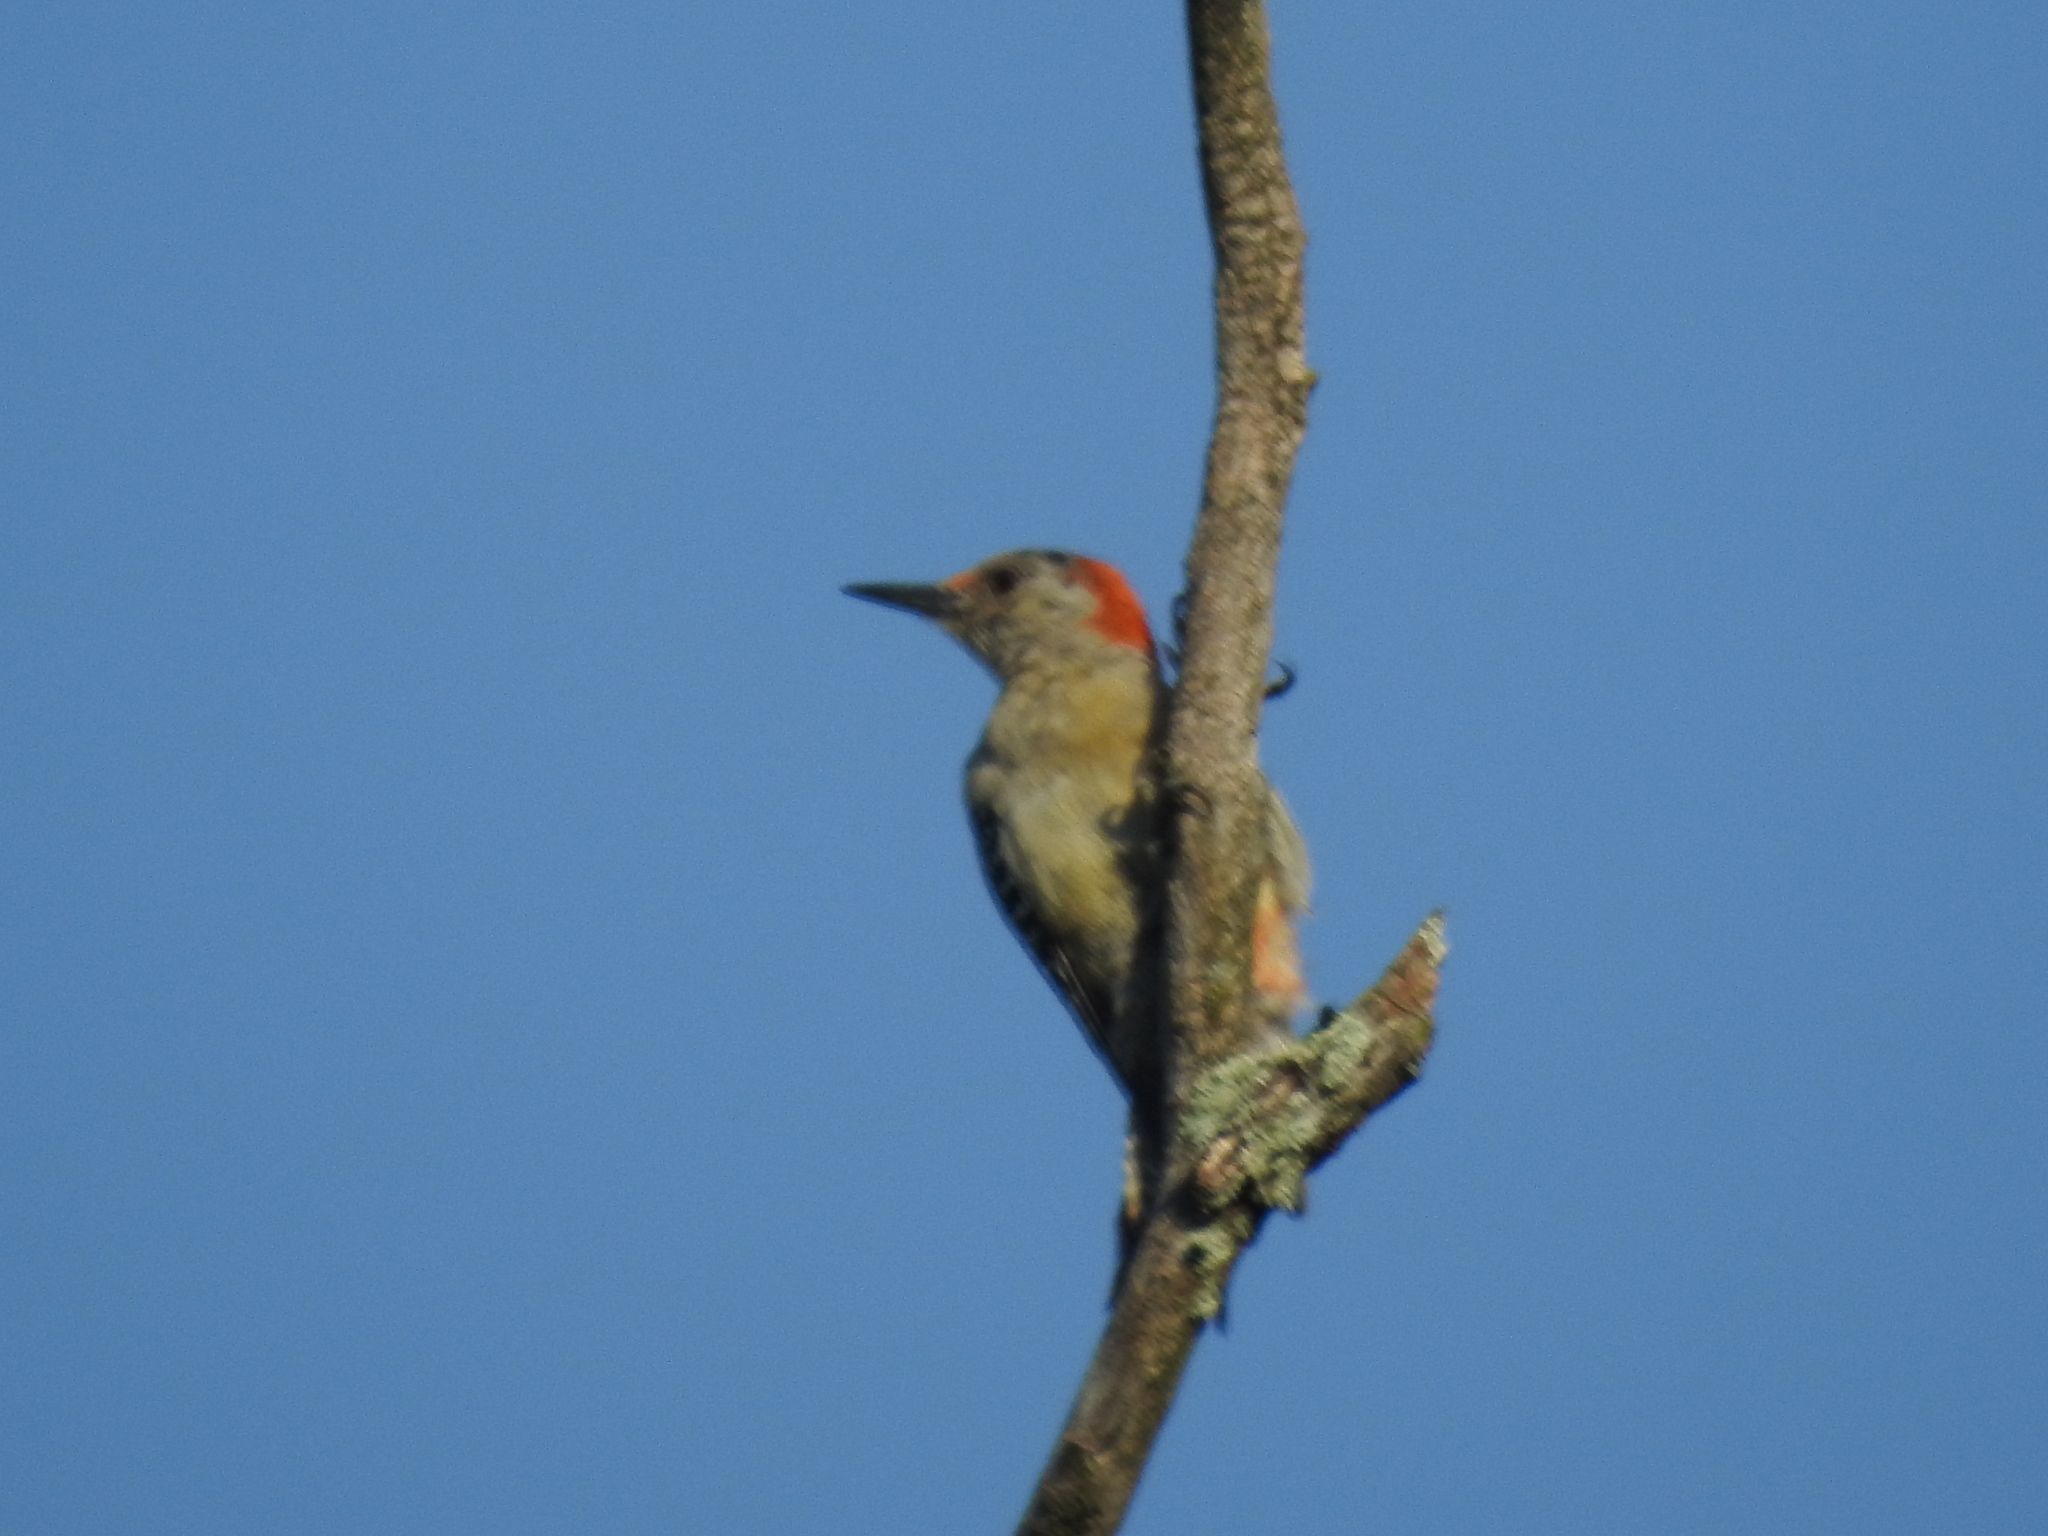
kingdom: Animalia
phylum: Chordata
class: Aves
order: Piciformes
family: Picidae
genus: Melanerpes
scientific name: Melanerpes carolinus
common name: Red-bellied woodpecker
